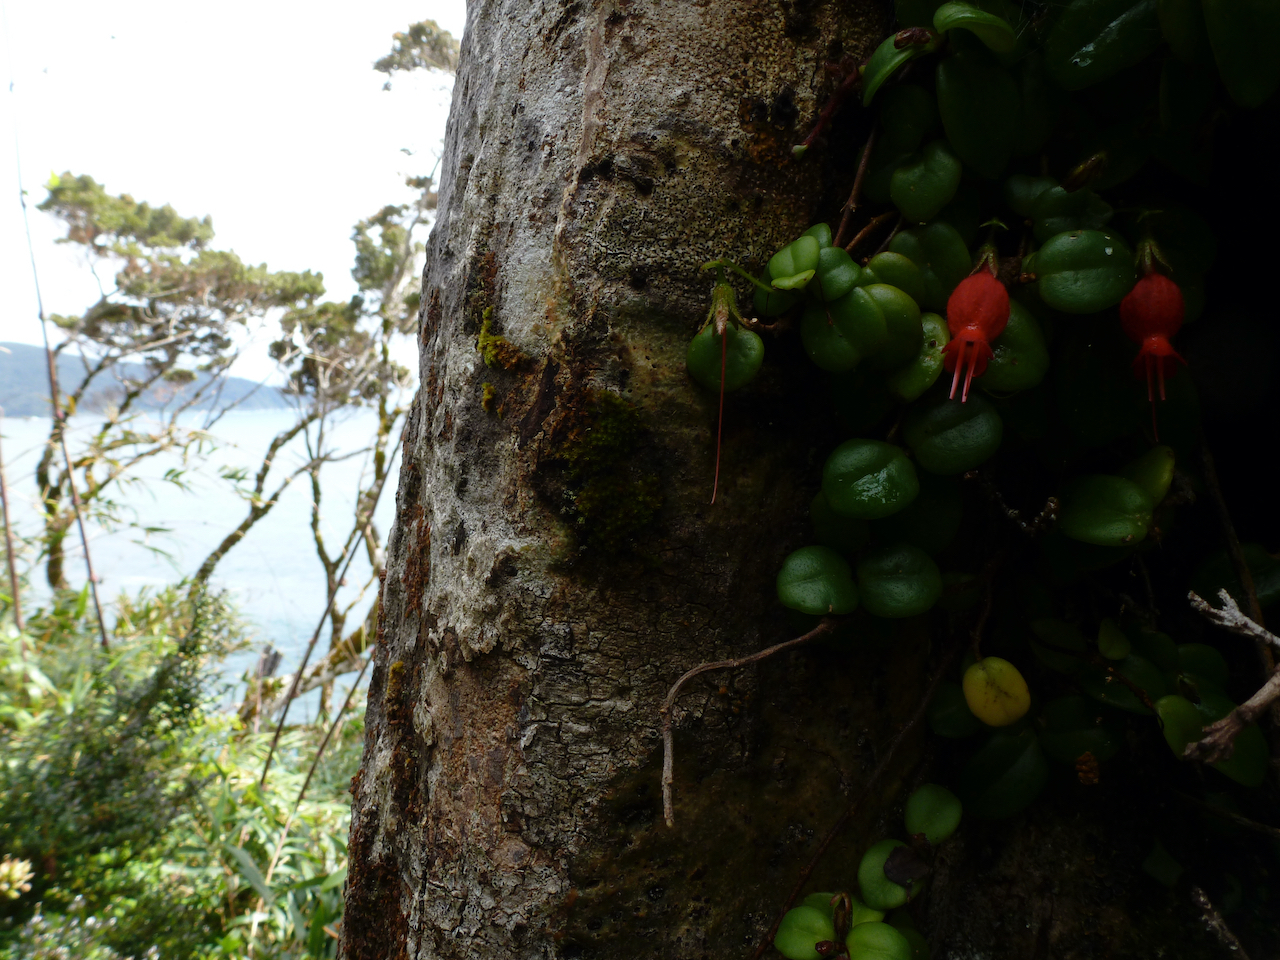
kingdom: Plantae
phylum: Tracheophyta
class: Magnoliopsida
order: Lamiales
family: Gesneriaceae
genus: Sarmienta
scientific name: Sarmienta scandens
